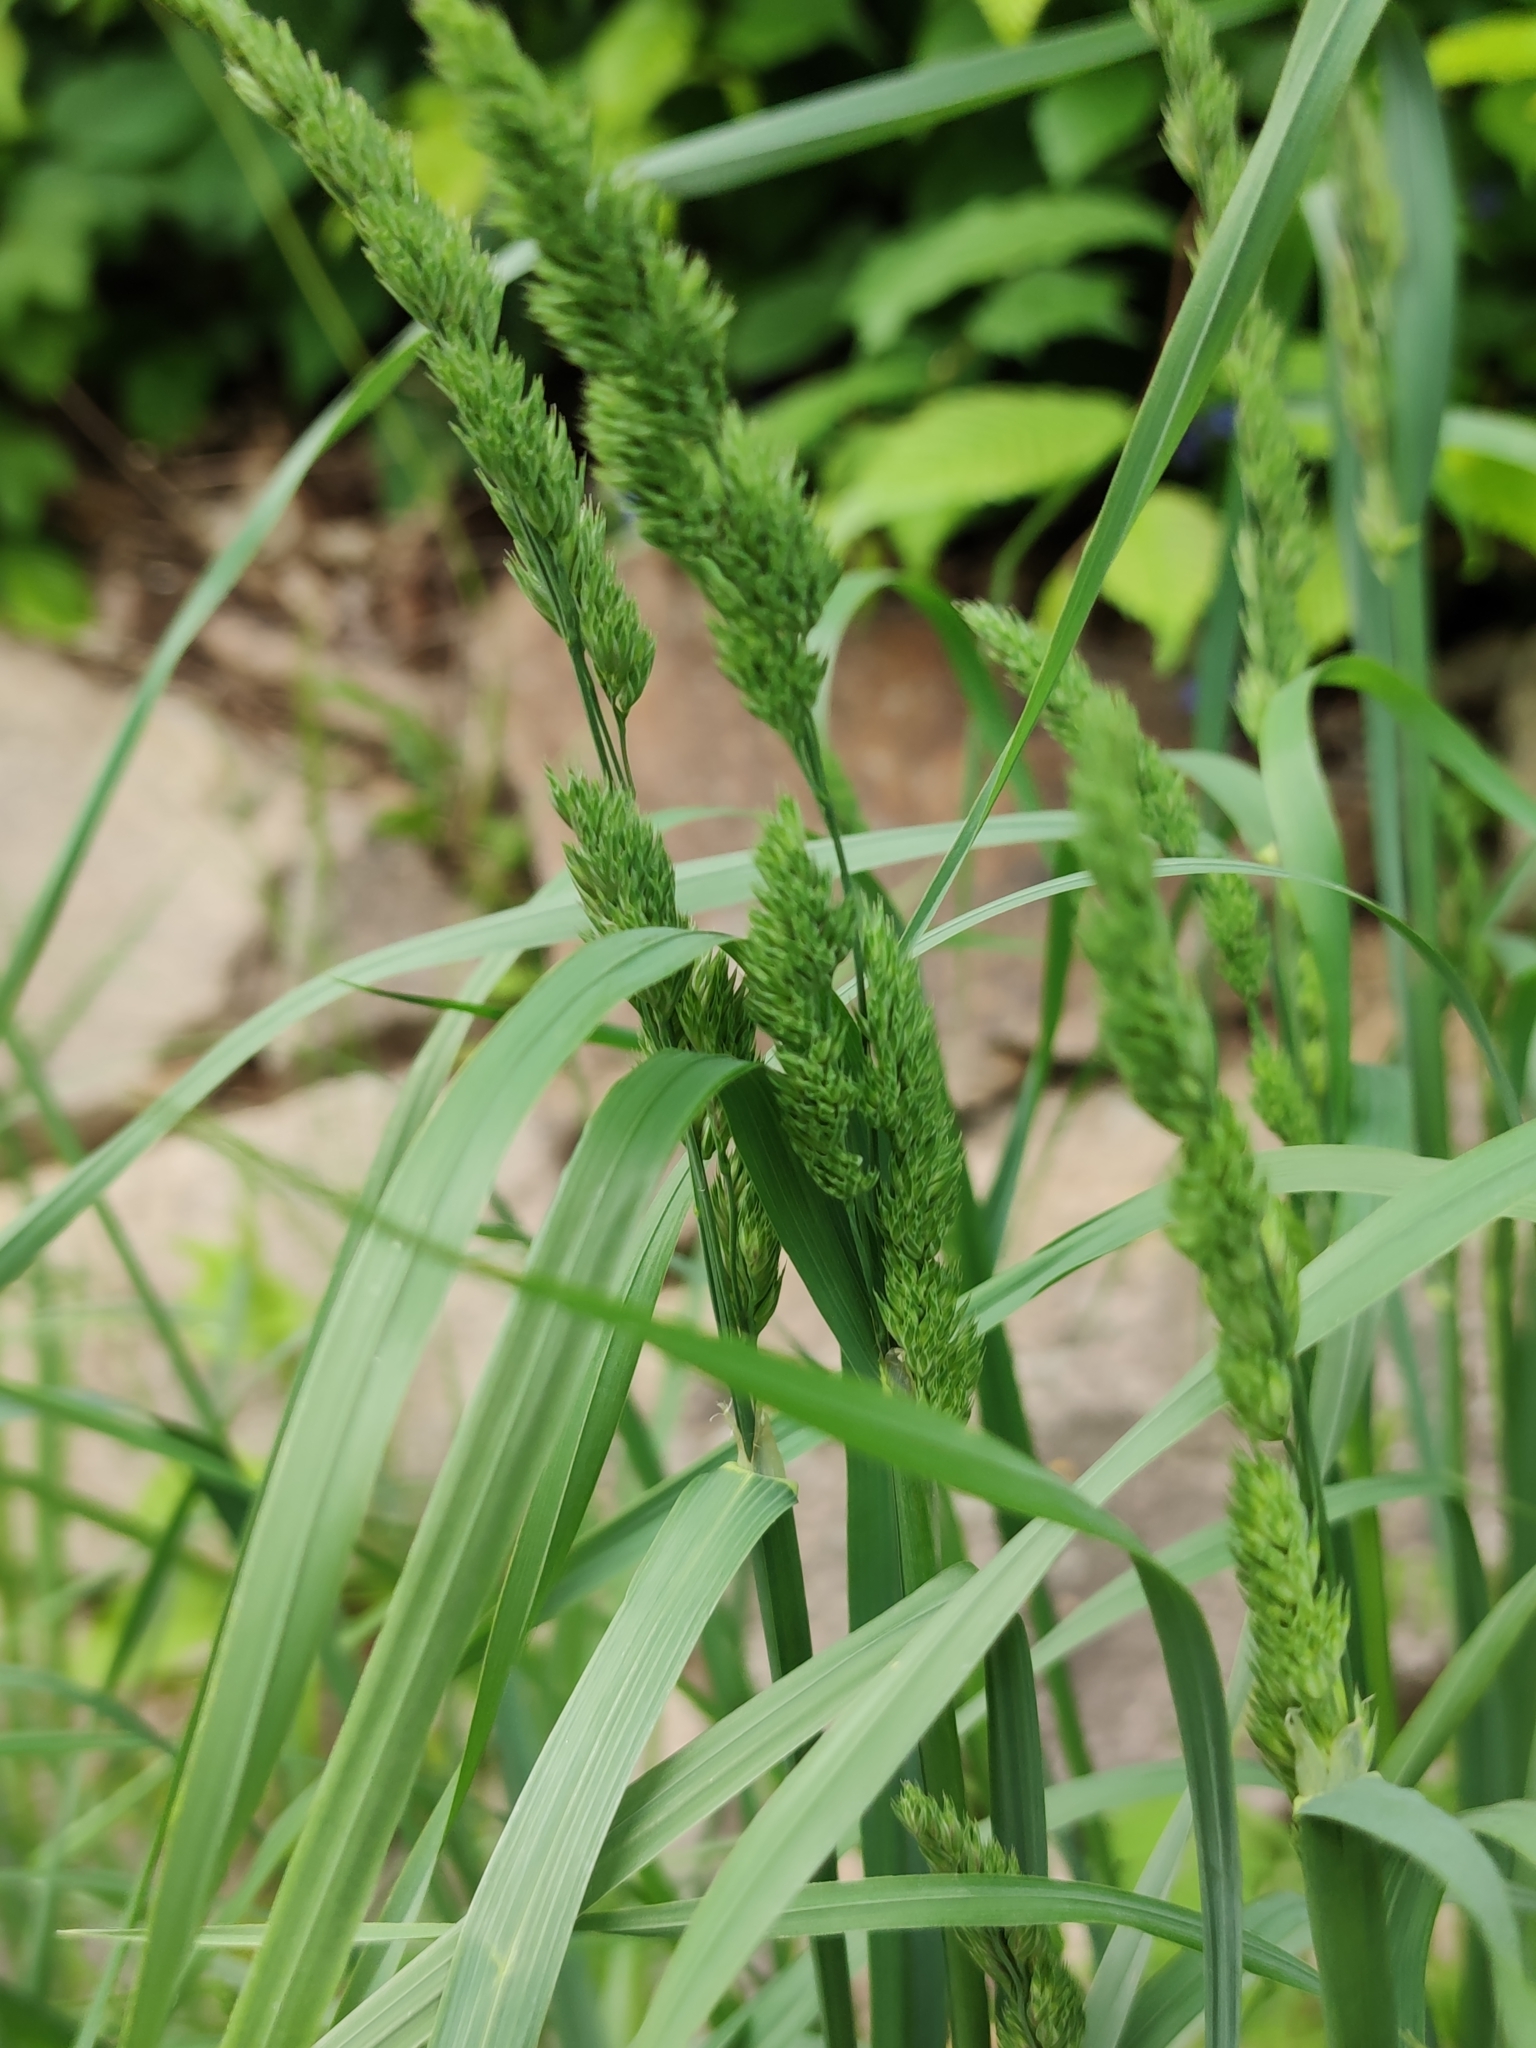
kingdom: Plantae
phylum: Tracheophyta
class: Liliopsida
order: Poales
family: Poaceae
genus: Dactylis
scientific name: Dactylis glomerata
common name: Orchardgrass
